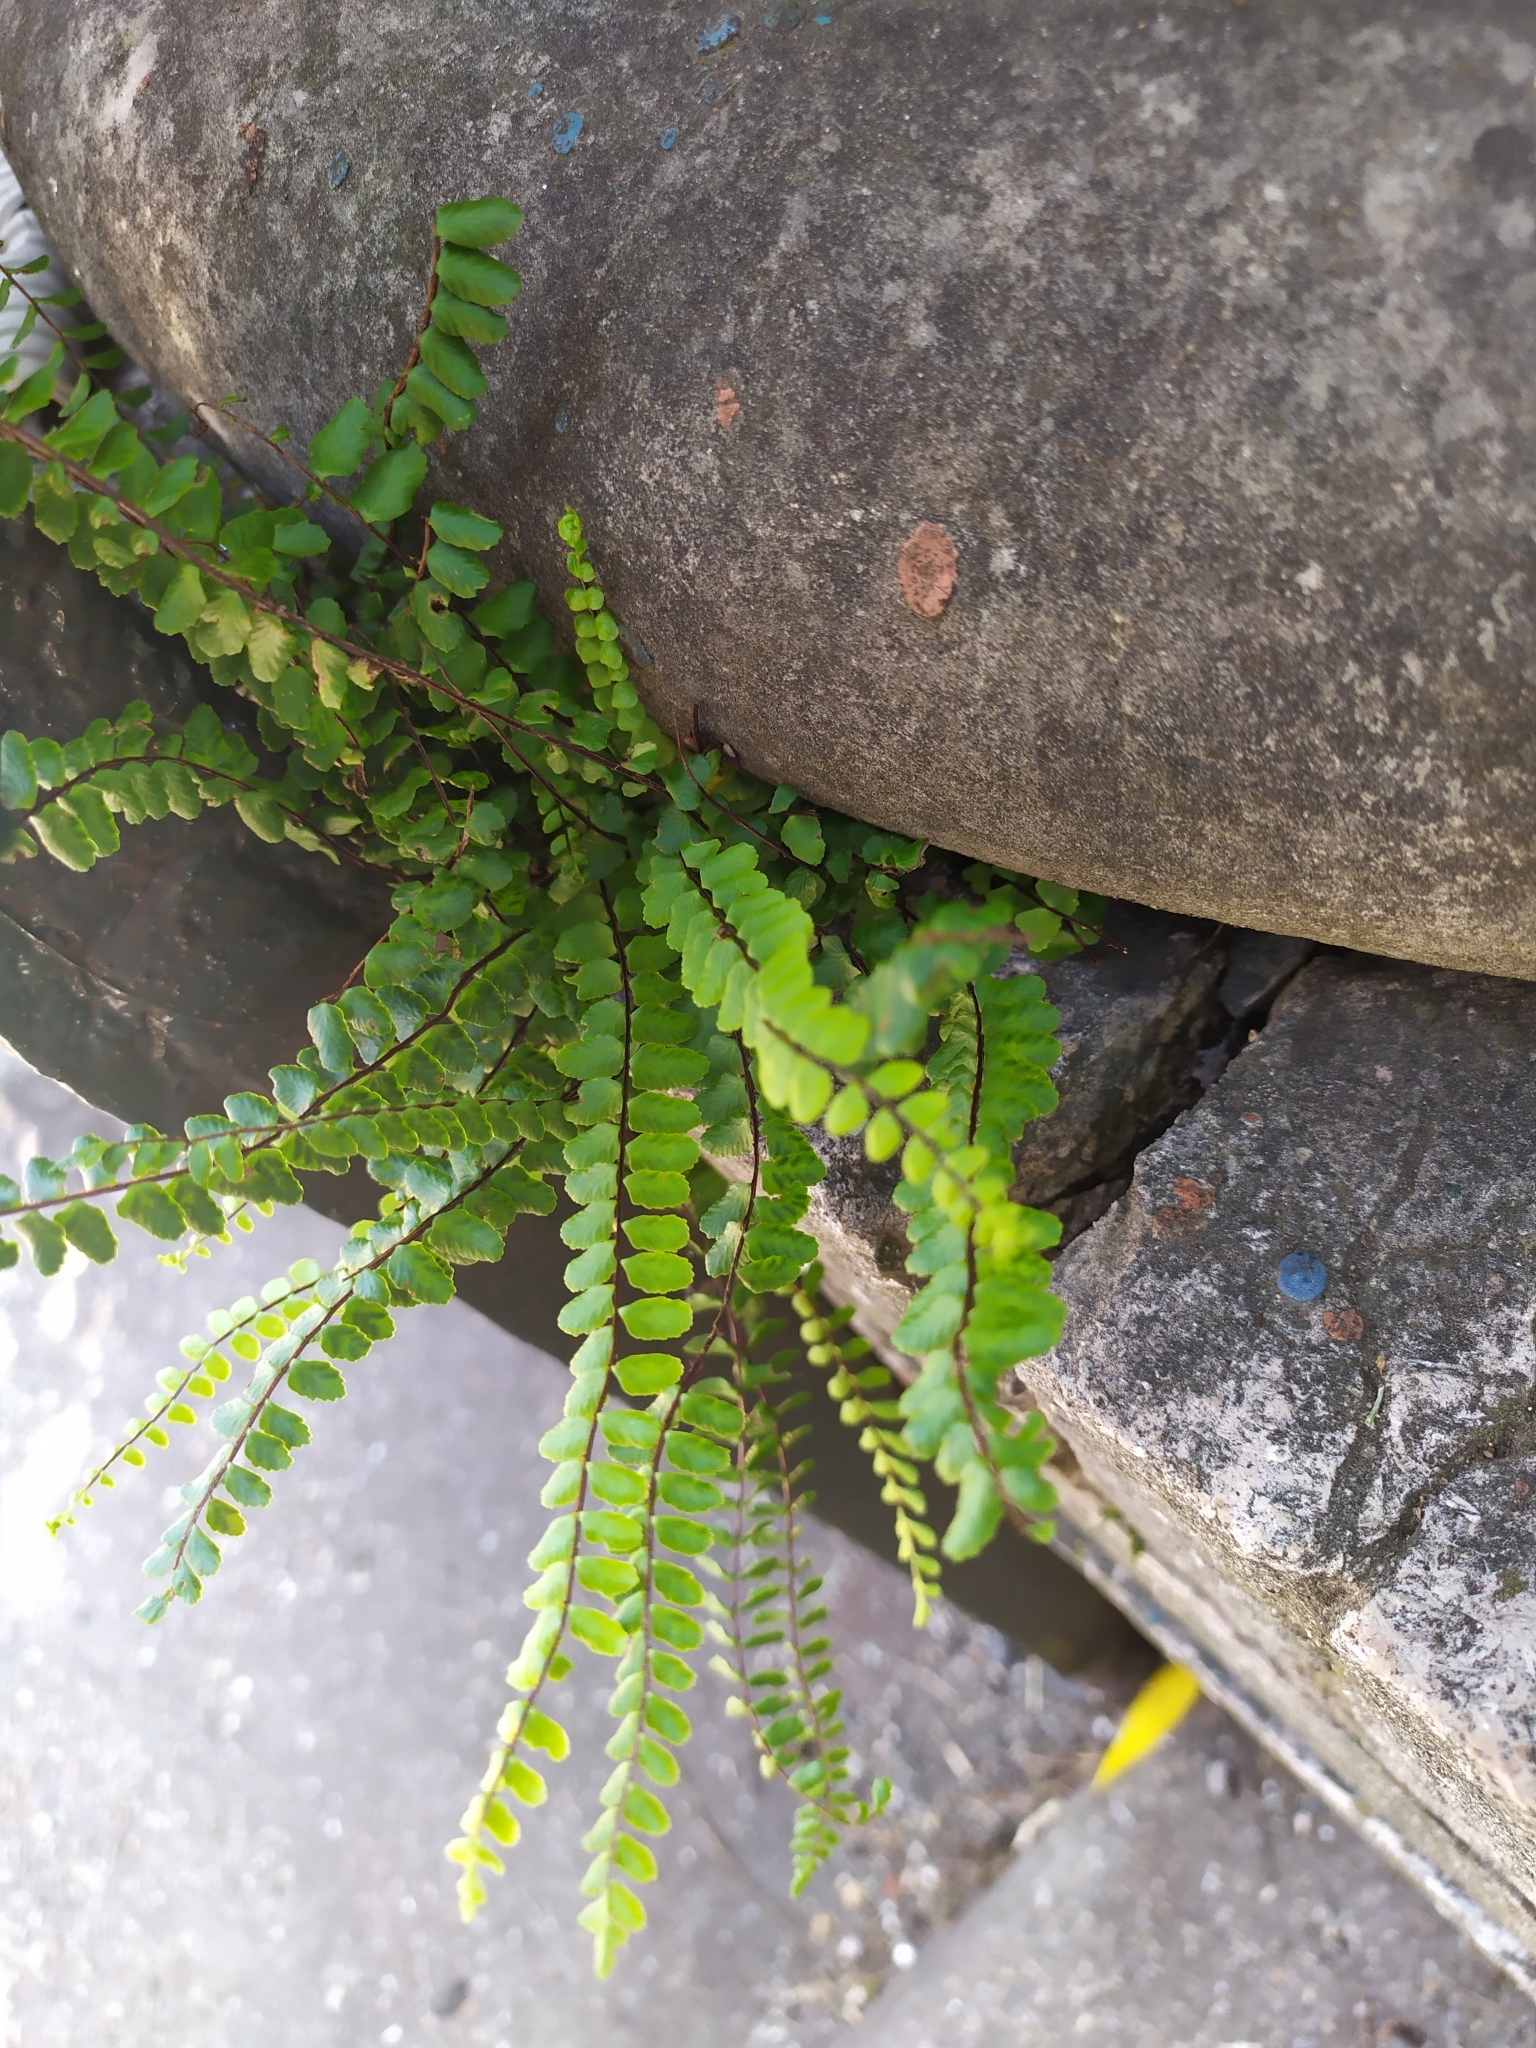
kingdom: Plantae
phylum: Tracheophyta
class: Polypodiopsida
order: Polypodiales
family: Aspleniaceae
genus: Asplenium
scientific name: Asplenium trichomanes
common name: Maidenhair spleenwort
